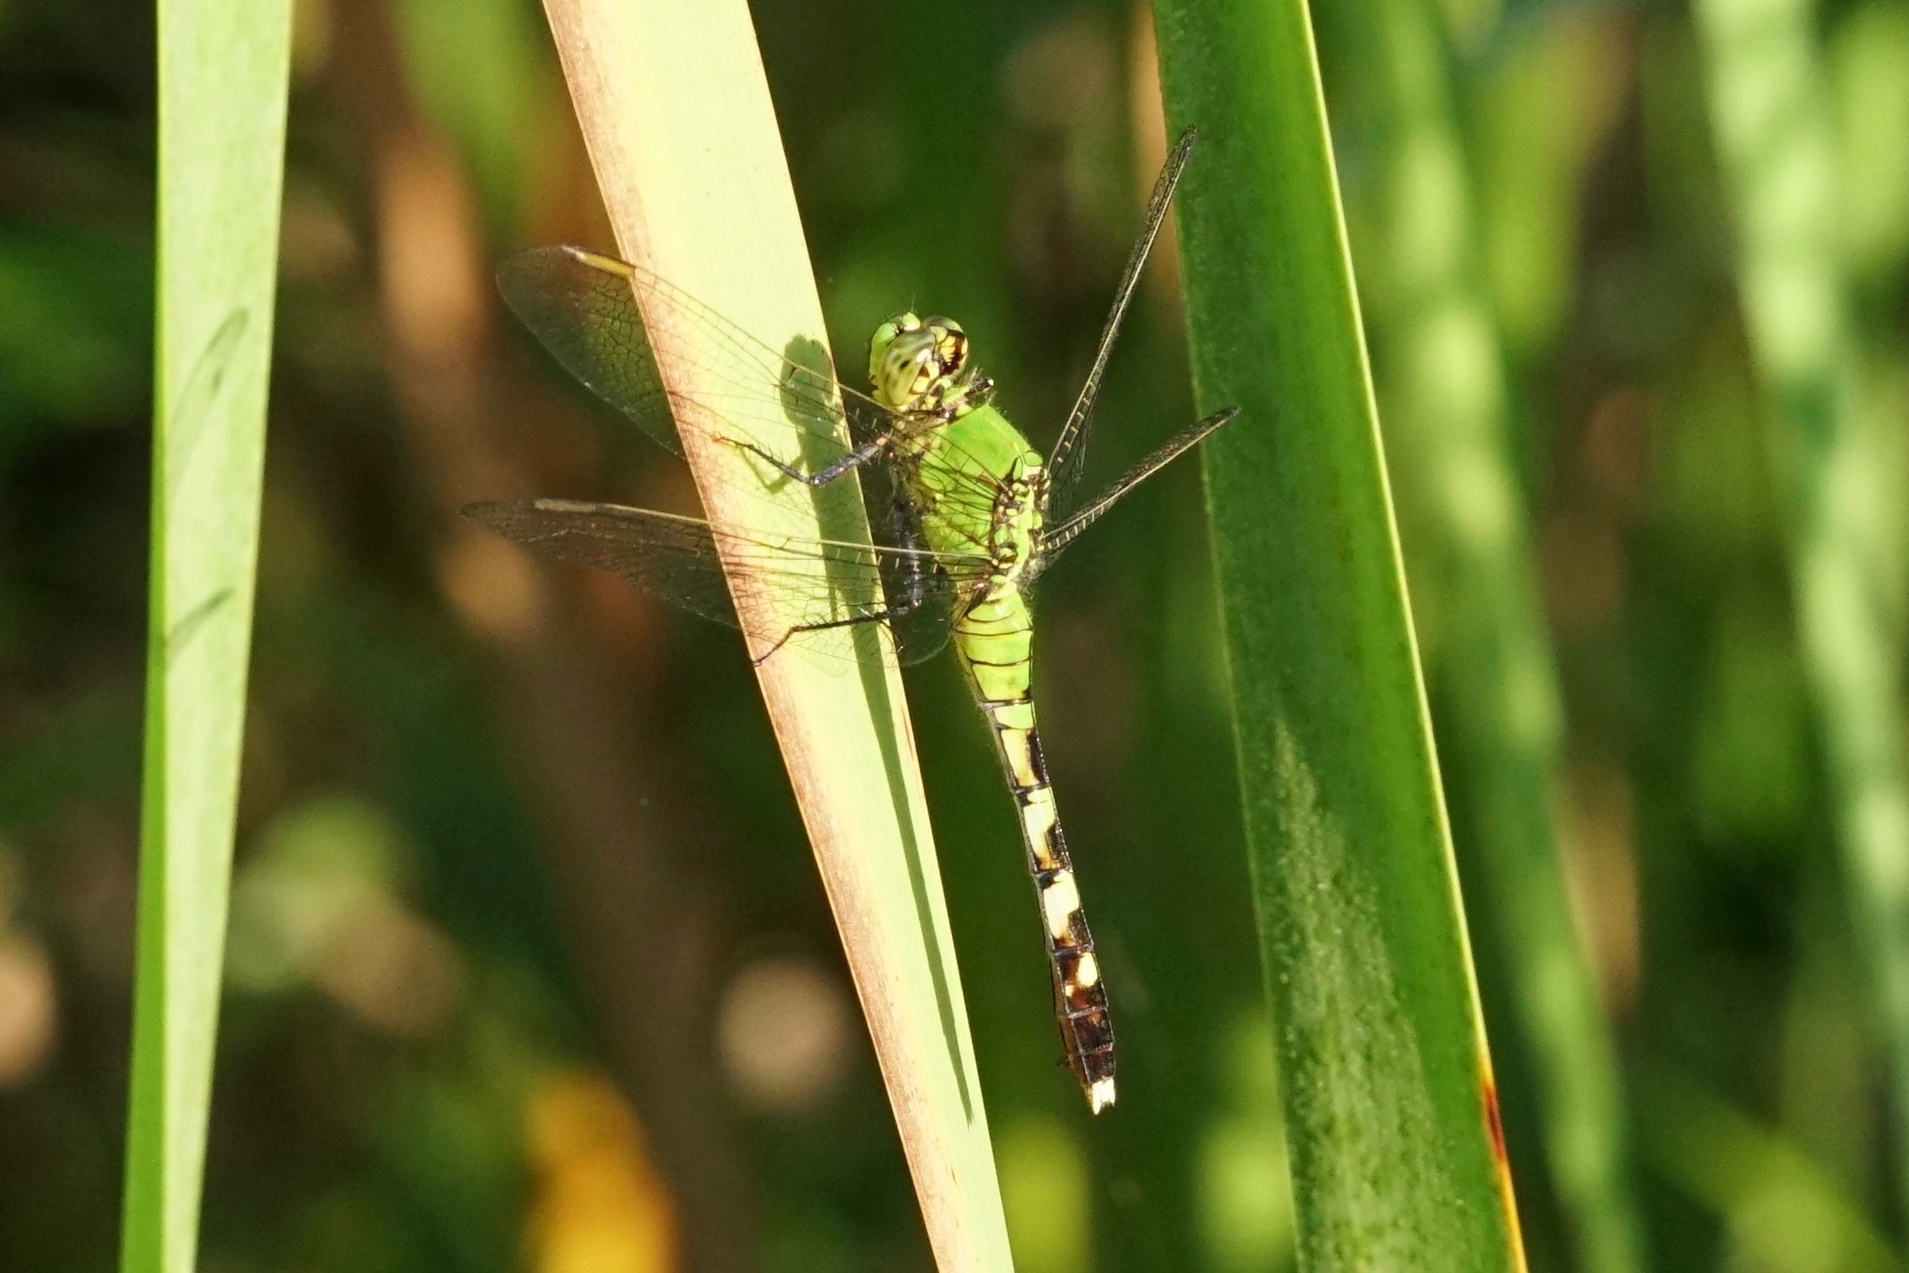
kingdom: Animalia
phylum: Arthropoda
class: Insecta
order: Odonata
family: Libellulidae
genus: Erythemis
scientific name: Erythemis simplicicollis
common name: Eastern pondhawk
